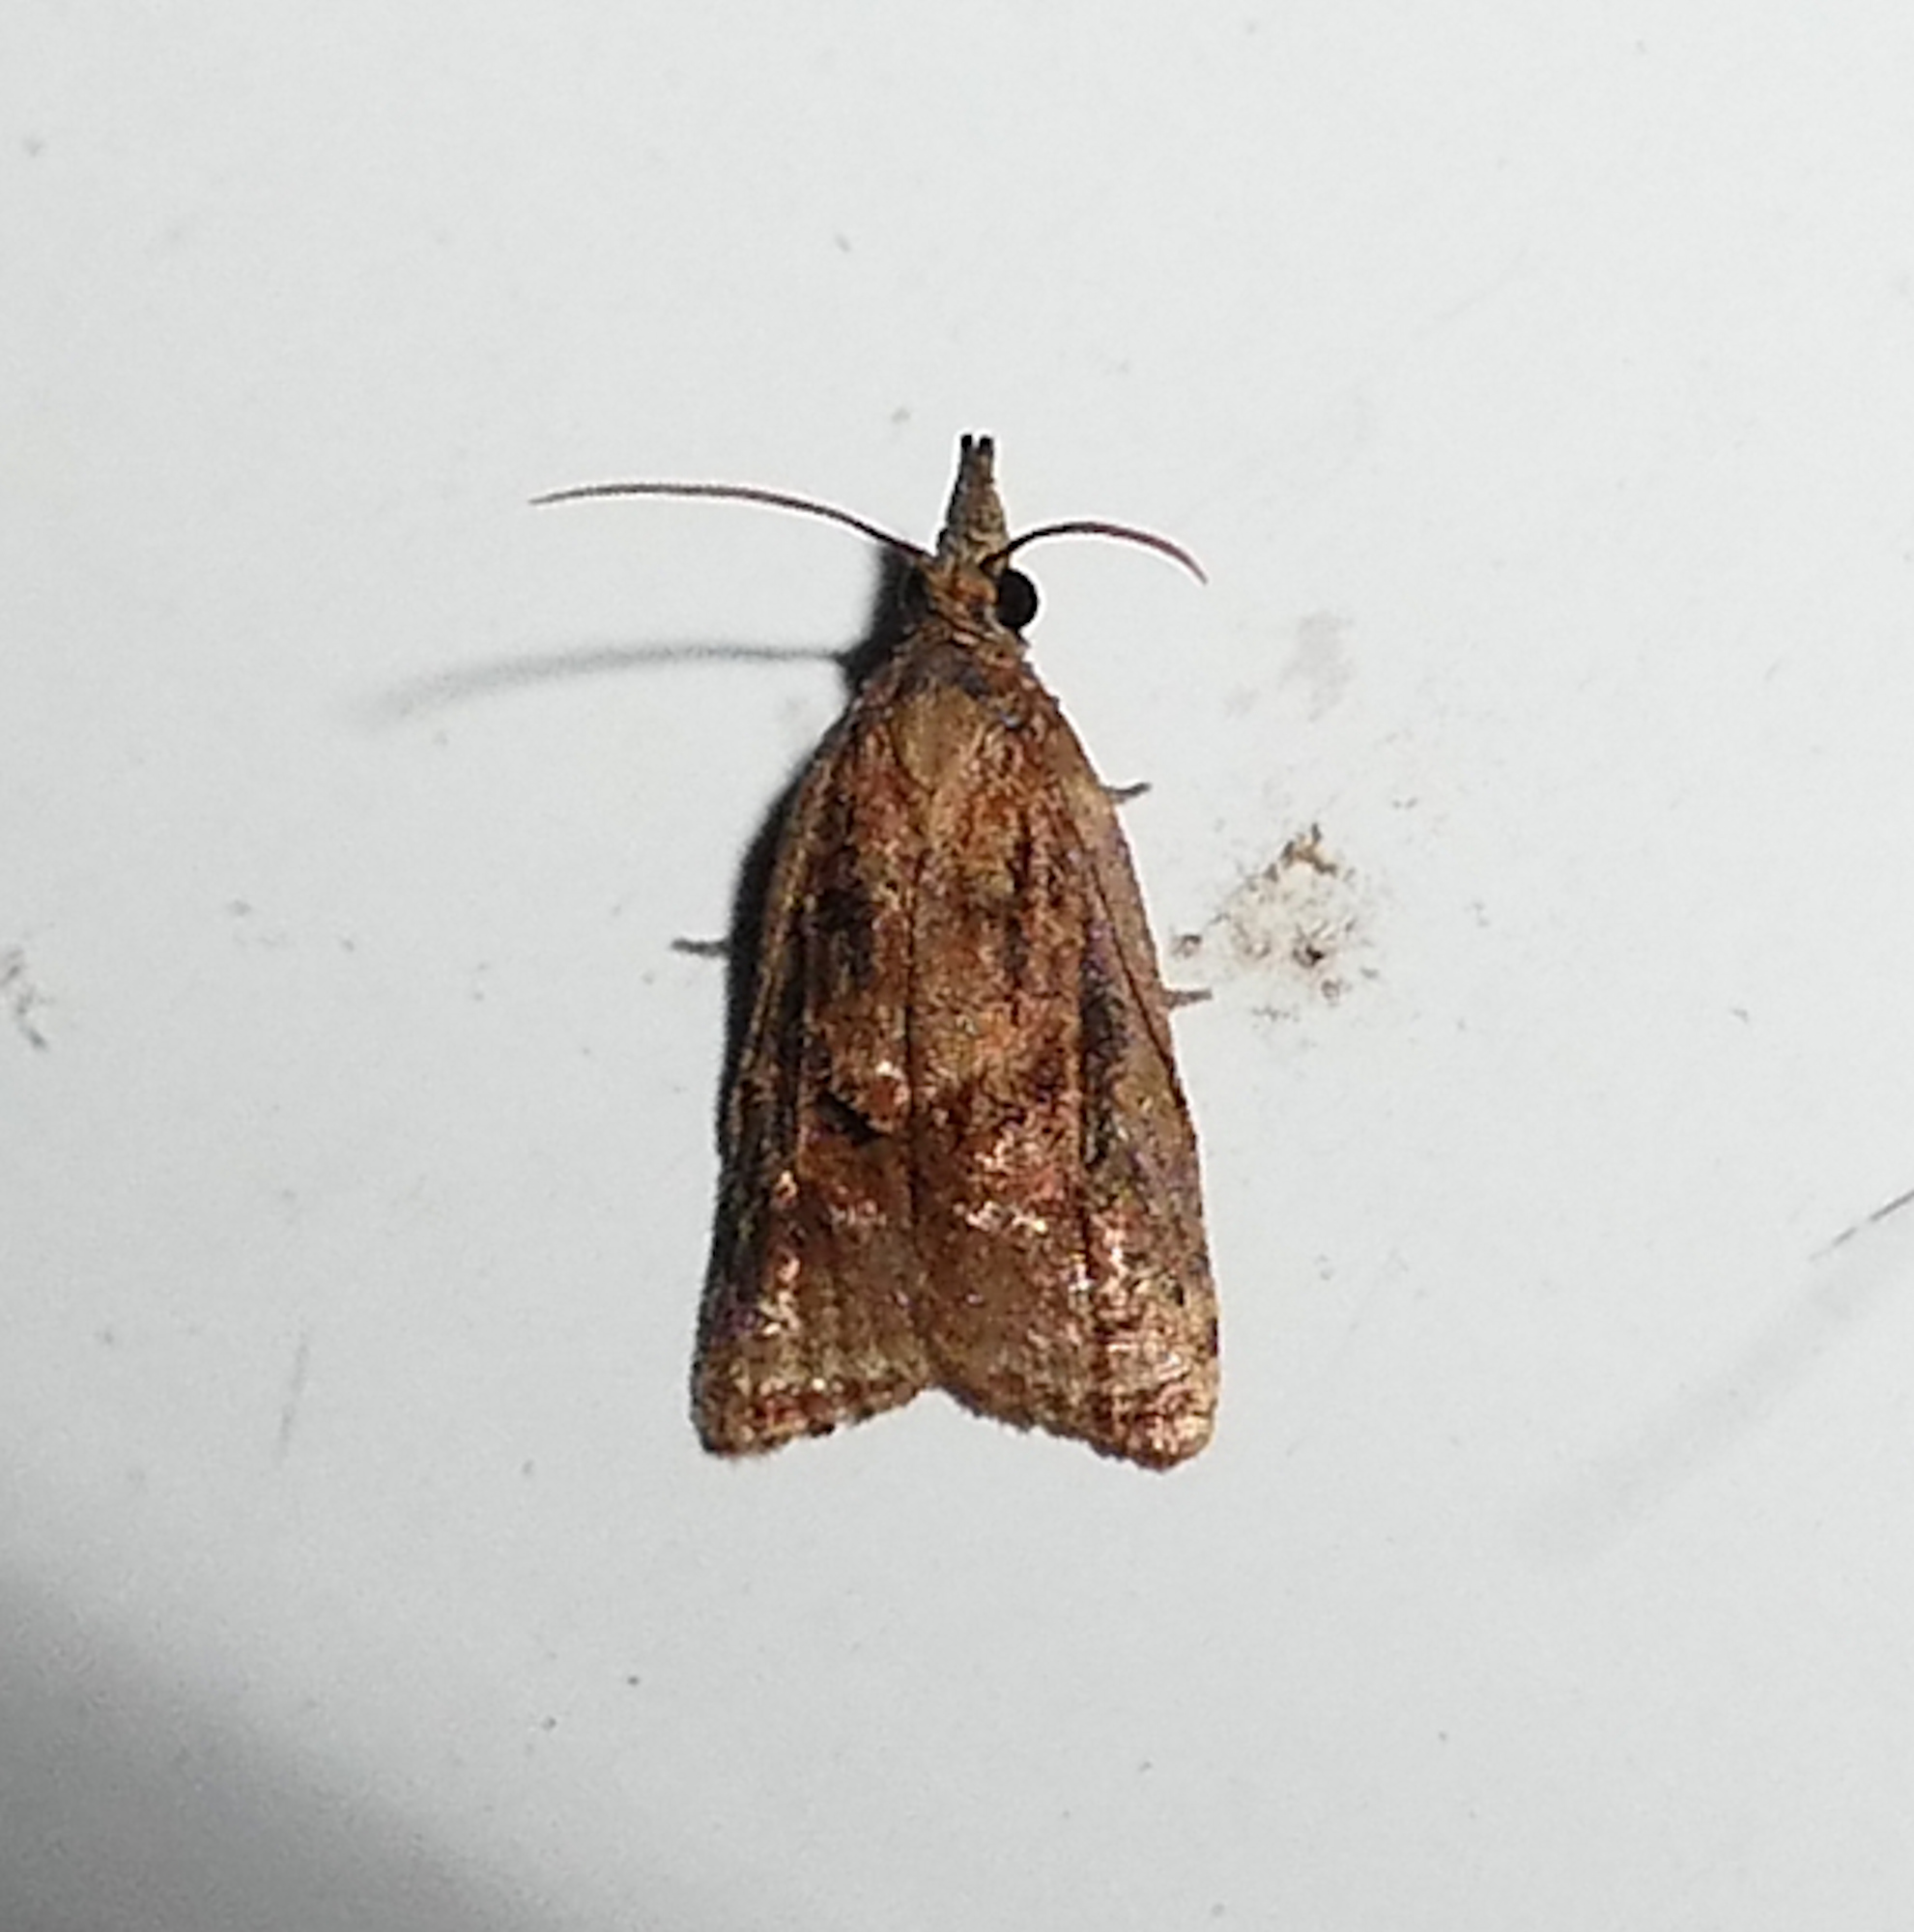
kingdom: Animalia
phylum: Arthropoda
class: Insecta
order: Lepidoptera
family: Tortricidae
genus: Platynota
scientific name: Platynota flavedana
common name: Black-shaded platynota moth
